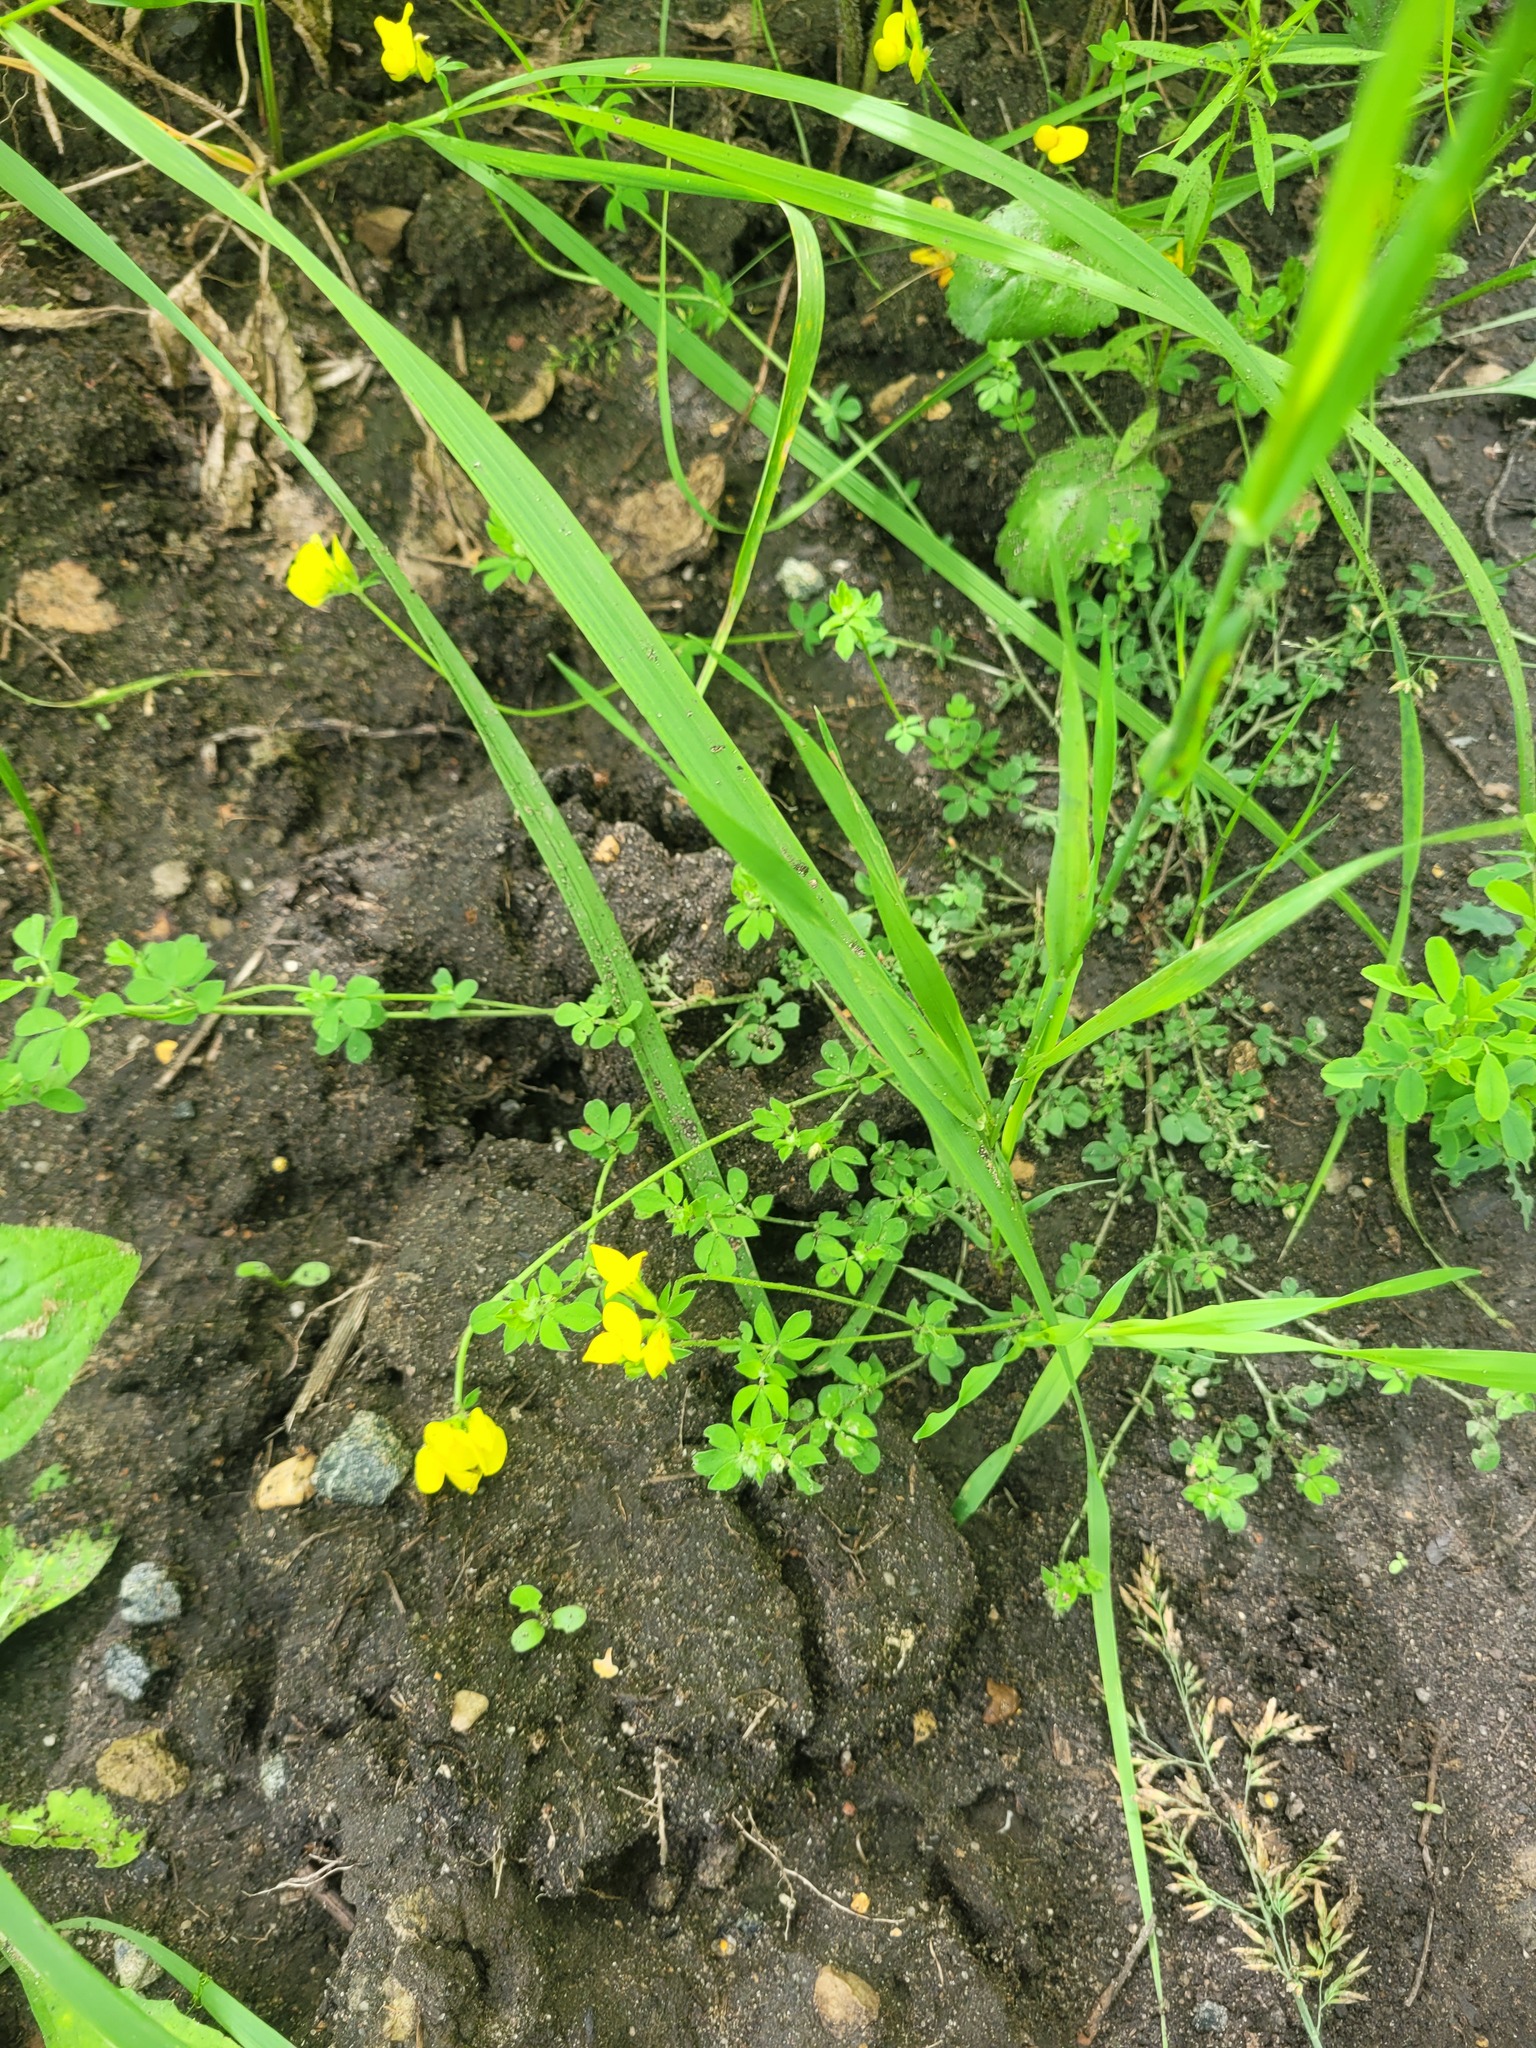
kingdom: Plantae
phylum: Tracheophyta
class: Magnoliopsida
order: Fabales
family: Fabaceae
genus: Lotus
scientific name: Lotus corniculatus
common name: Common bird's-foot-trefoil
